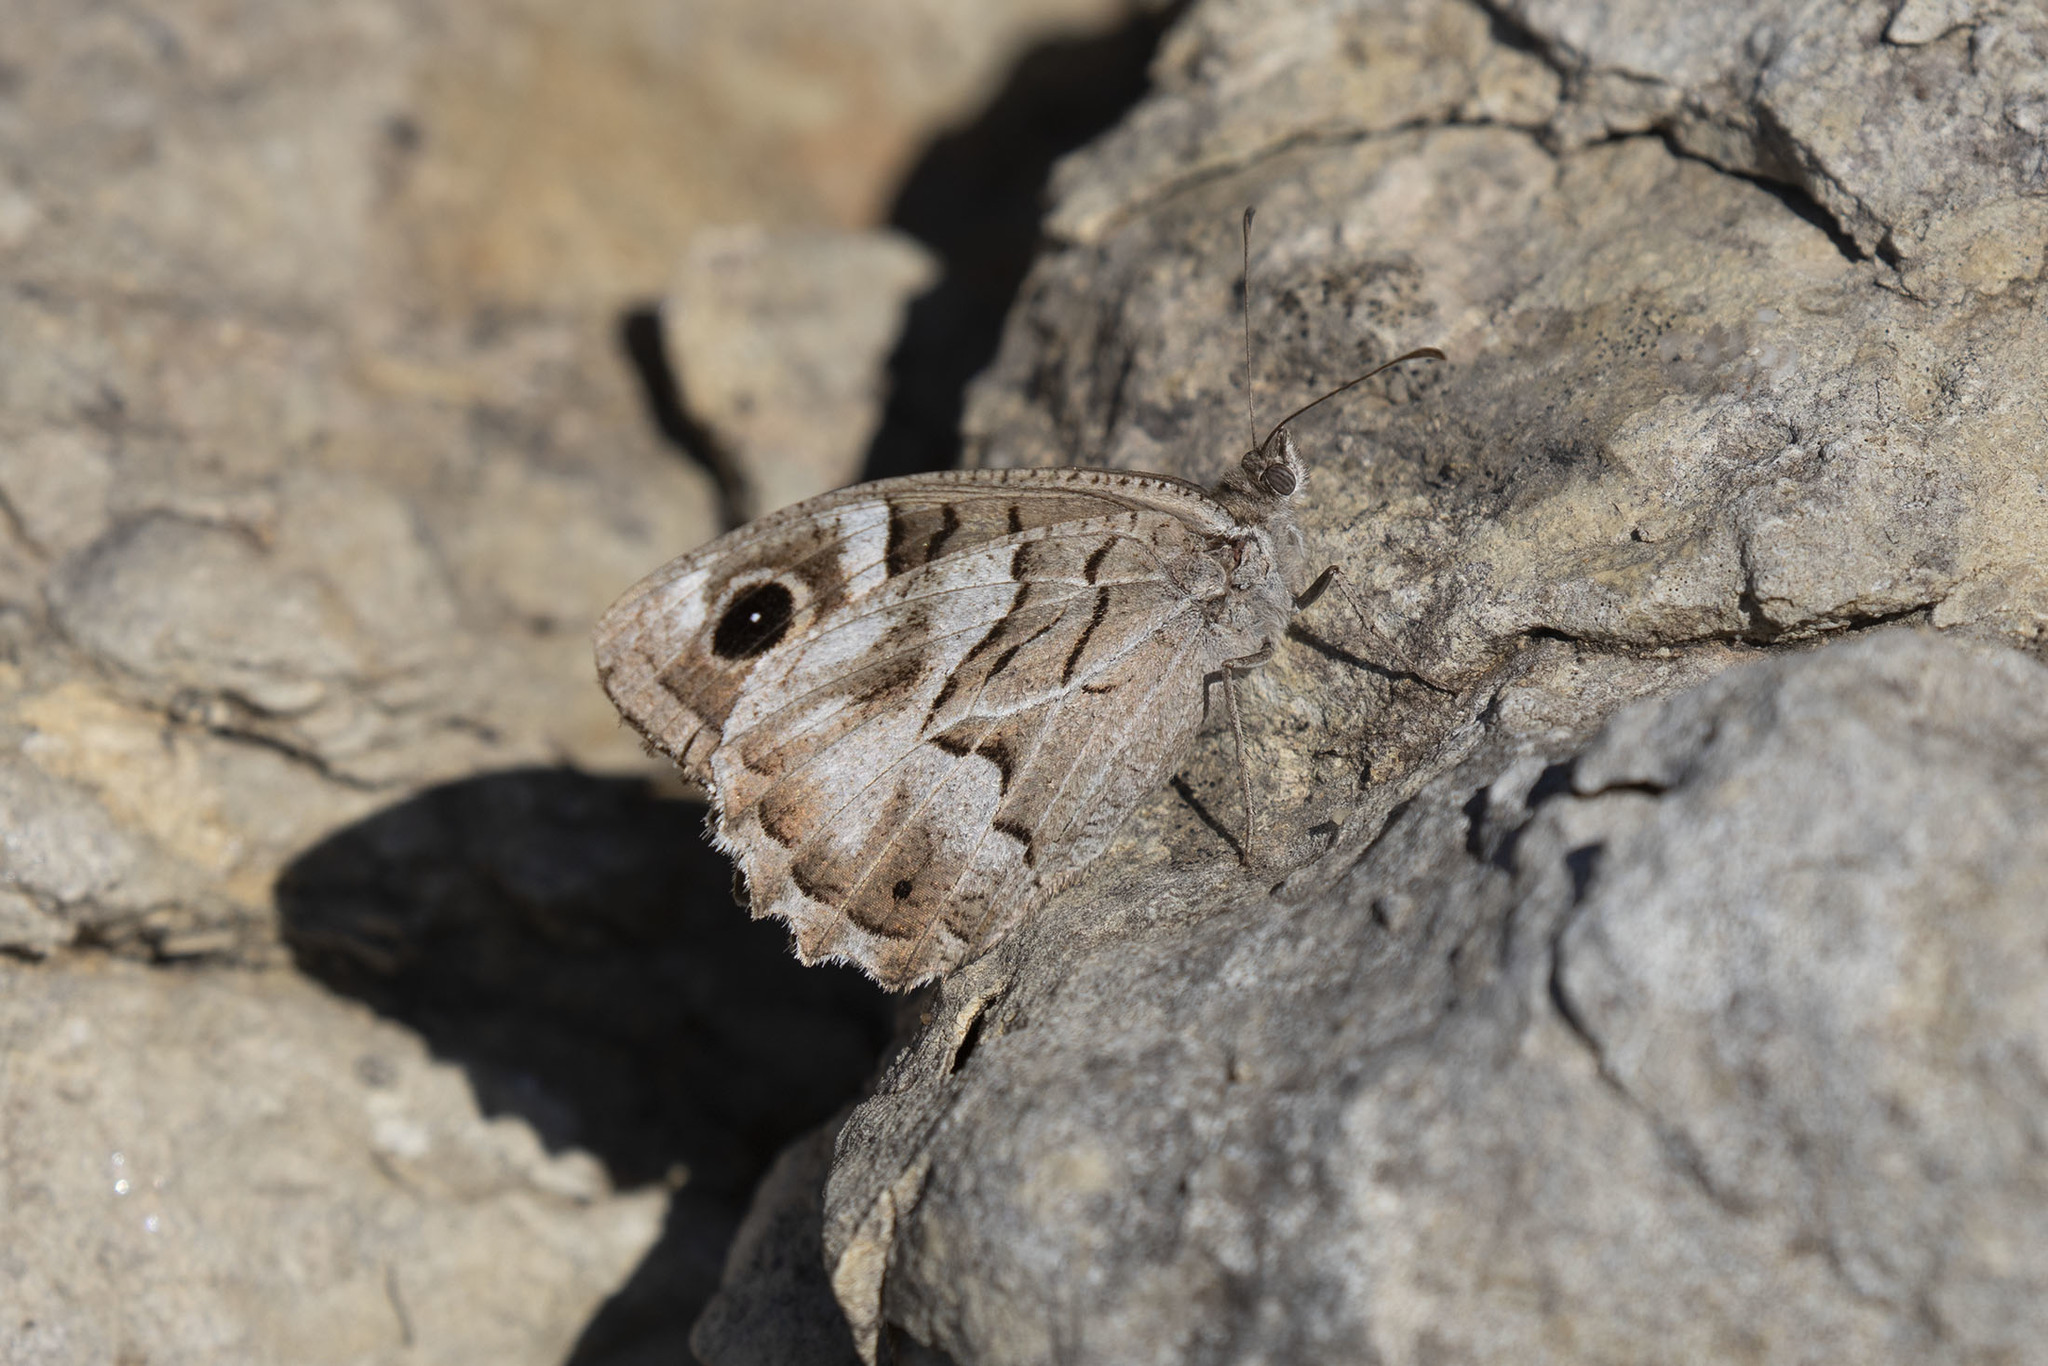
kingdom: Animalia
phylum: Arthropoda
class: Insecta
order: Lepidoptera
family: Nymphalidae
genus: Hipparchia
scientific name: Hipparchia fidia
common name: Striped grayling
